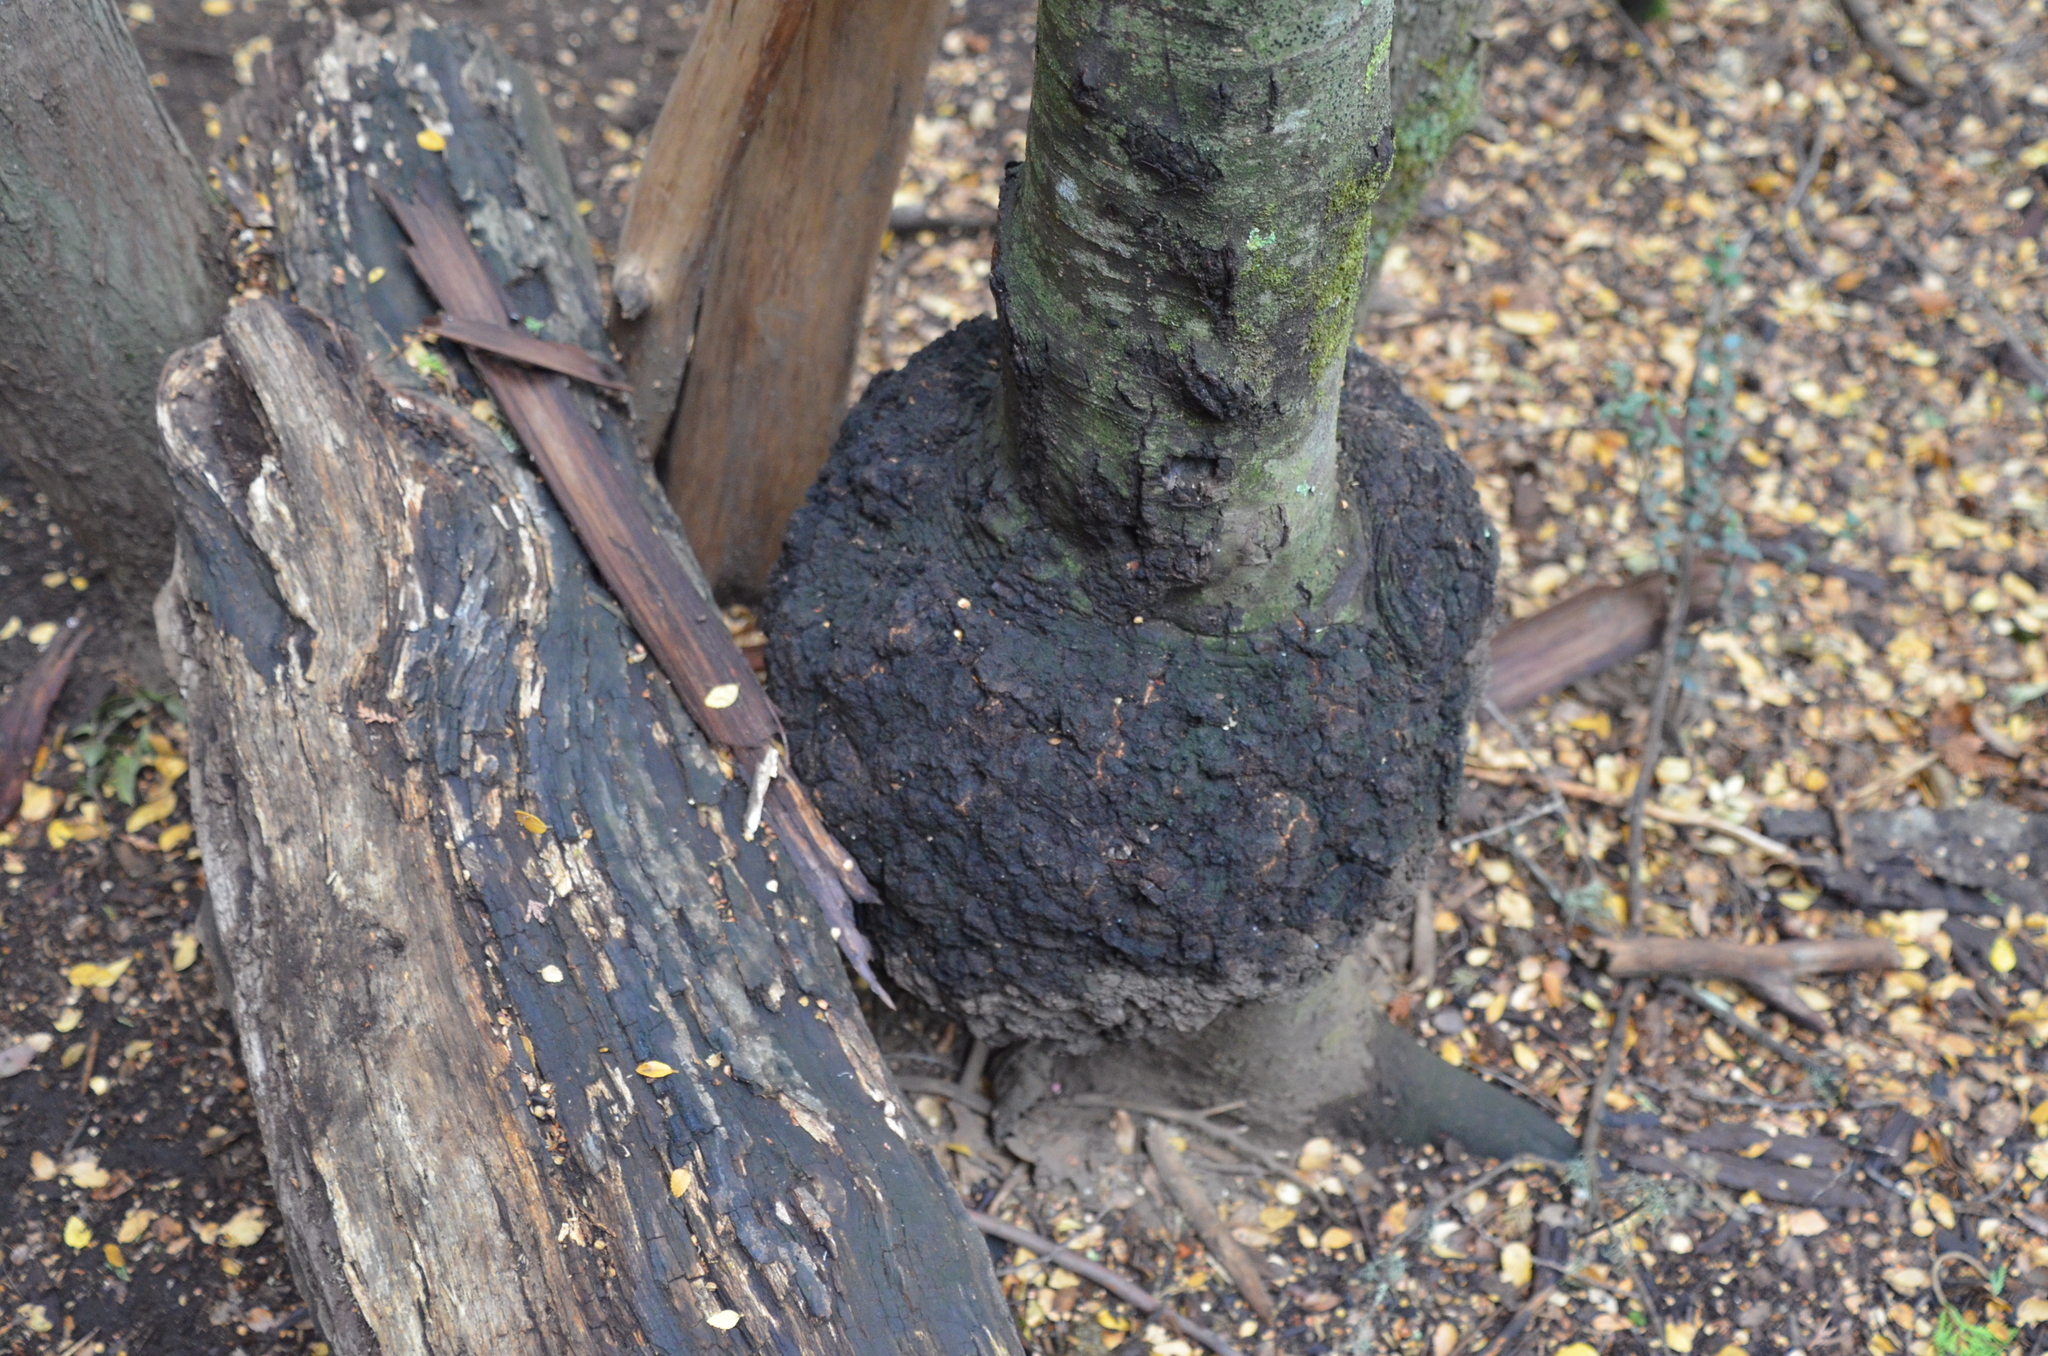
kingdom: Fungi
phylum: Ascomycota
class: Leotiomycetes
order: Cyttariales
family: Cyttariaceae
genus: Cyttaria
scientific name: Cyttaria hariotii
